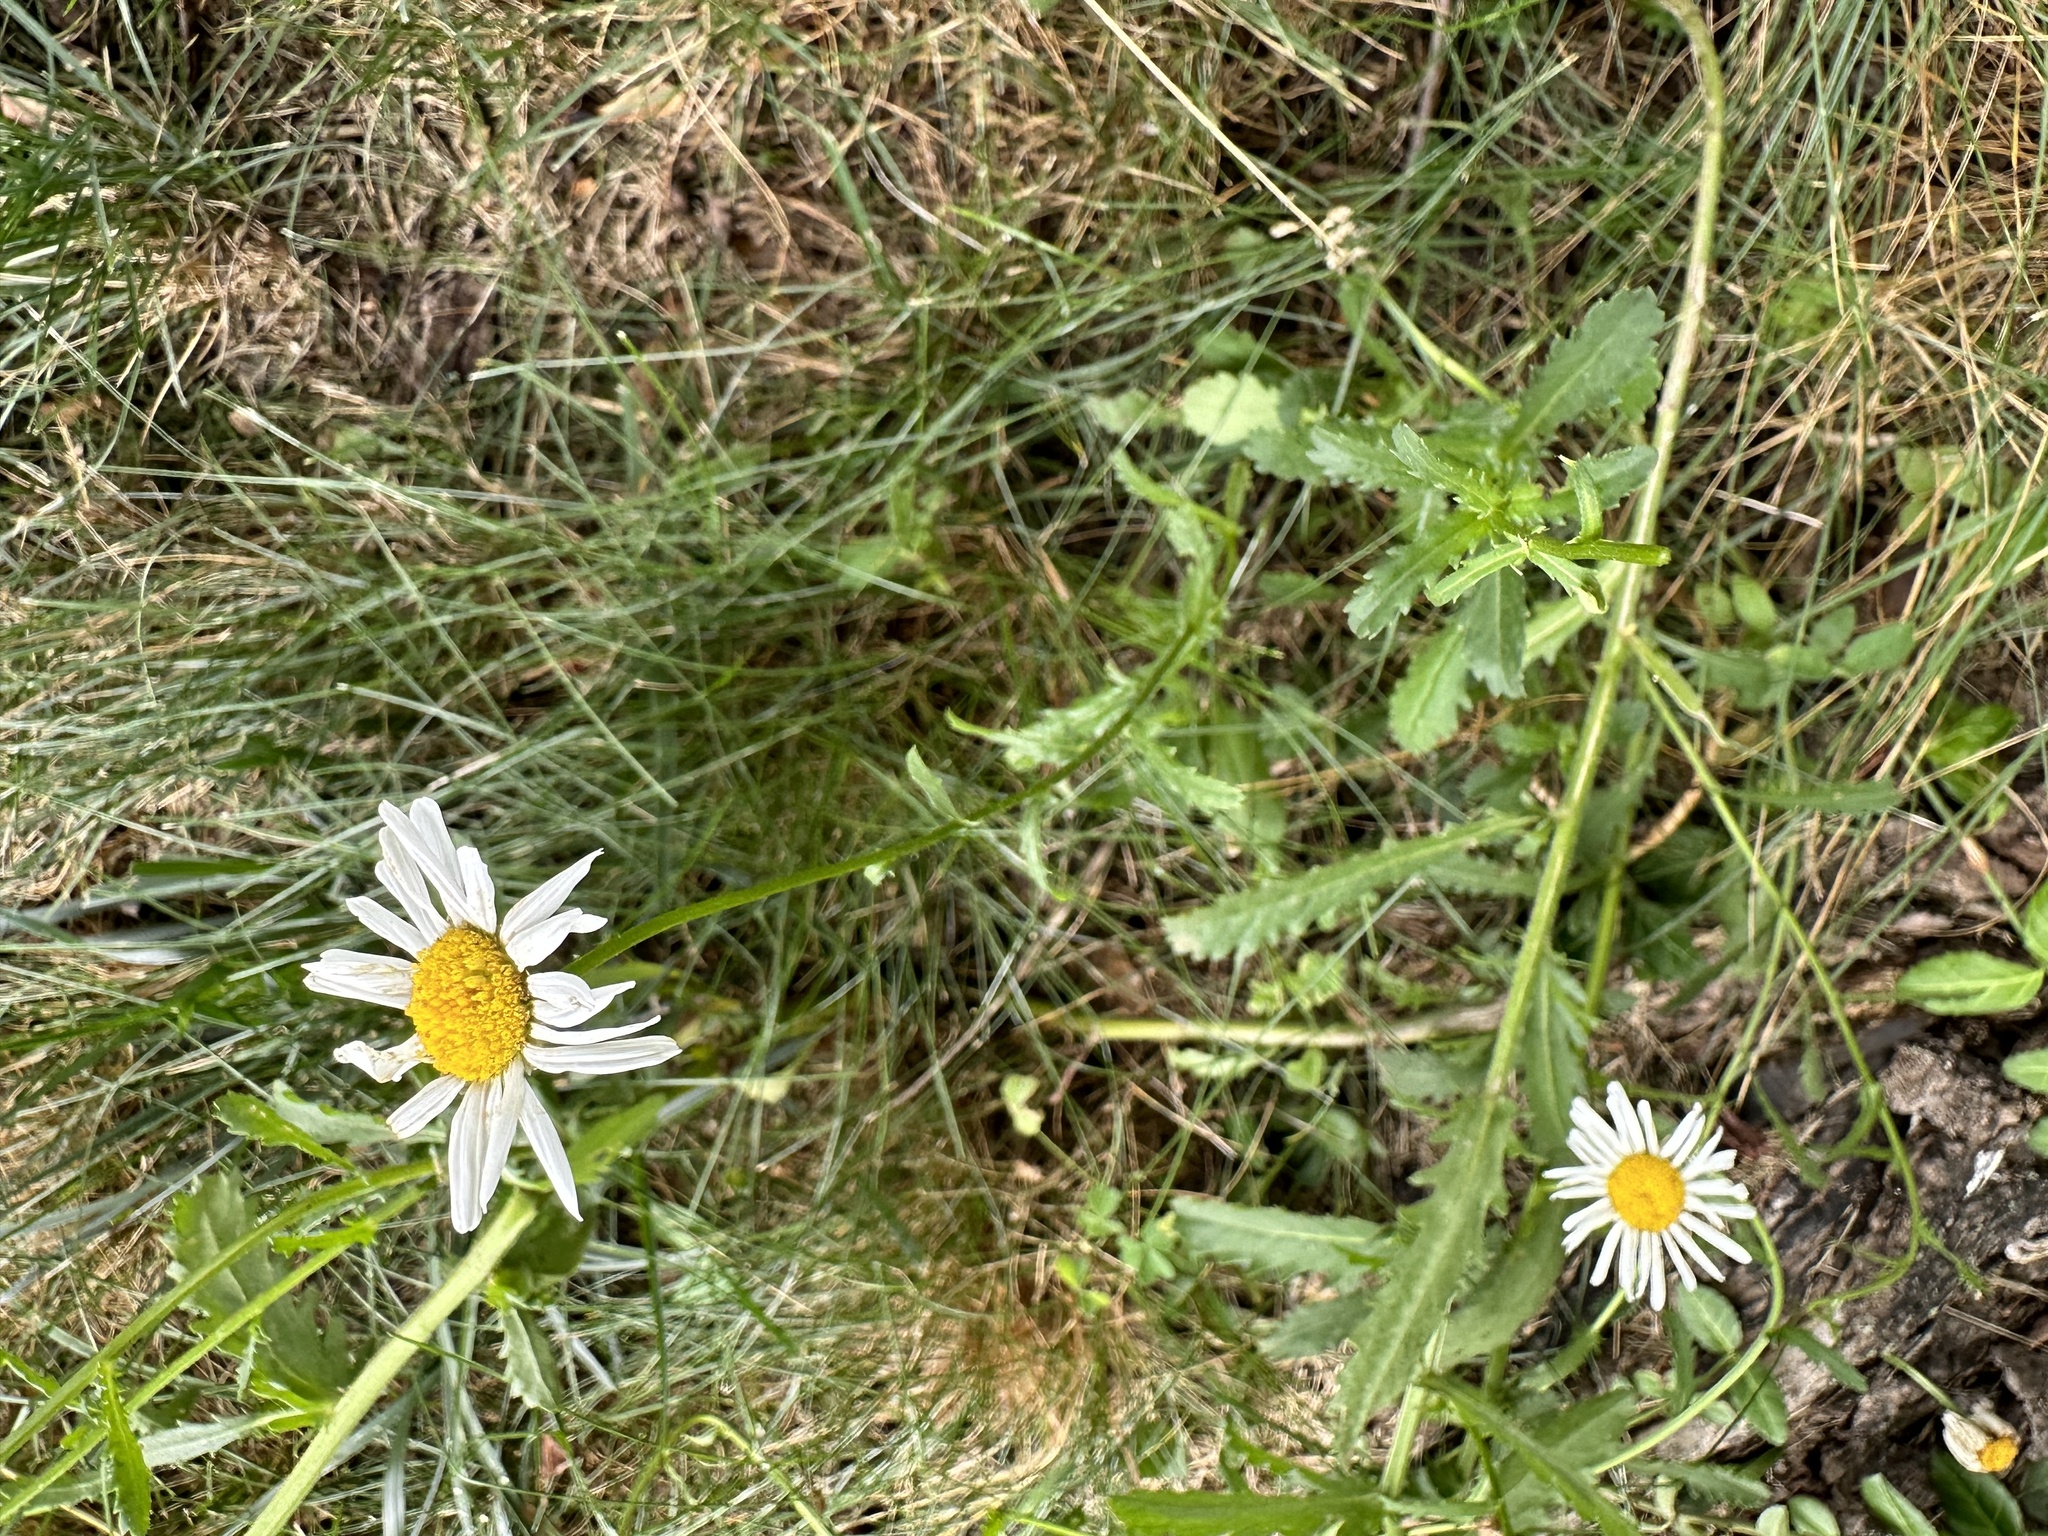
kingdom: Plantae
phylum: Tracheophyta
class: Magnoliopsida
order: Asterales
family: Asteraceae
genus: Leucanthemum
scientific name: Leucanthemum vulgare
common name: Oxeye daisy
